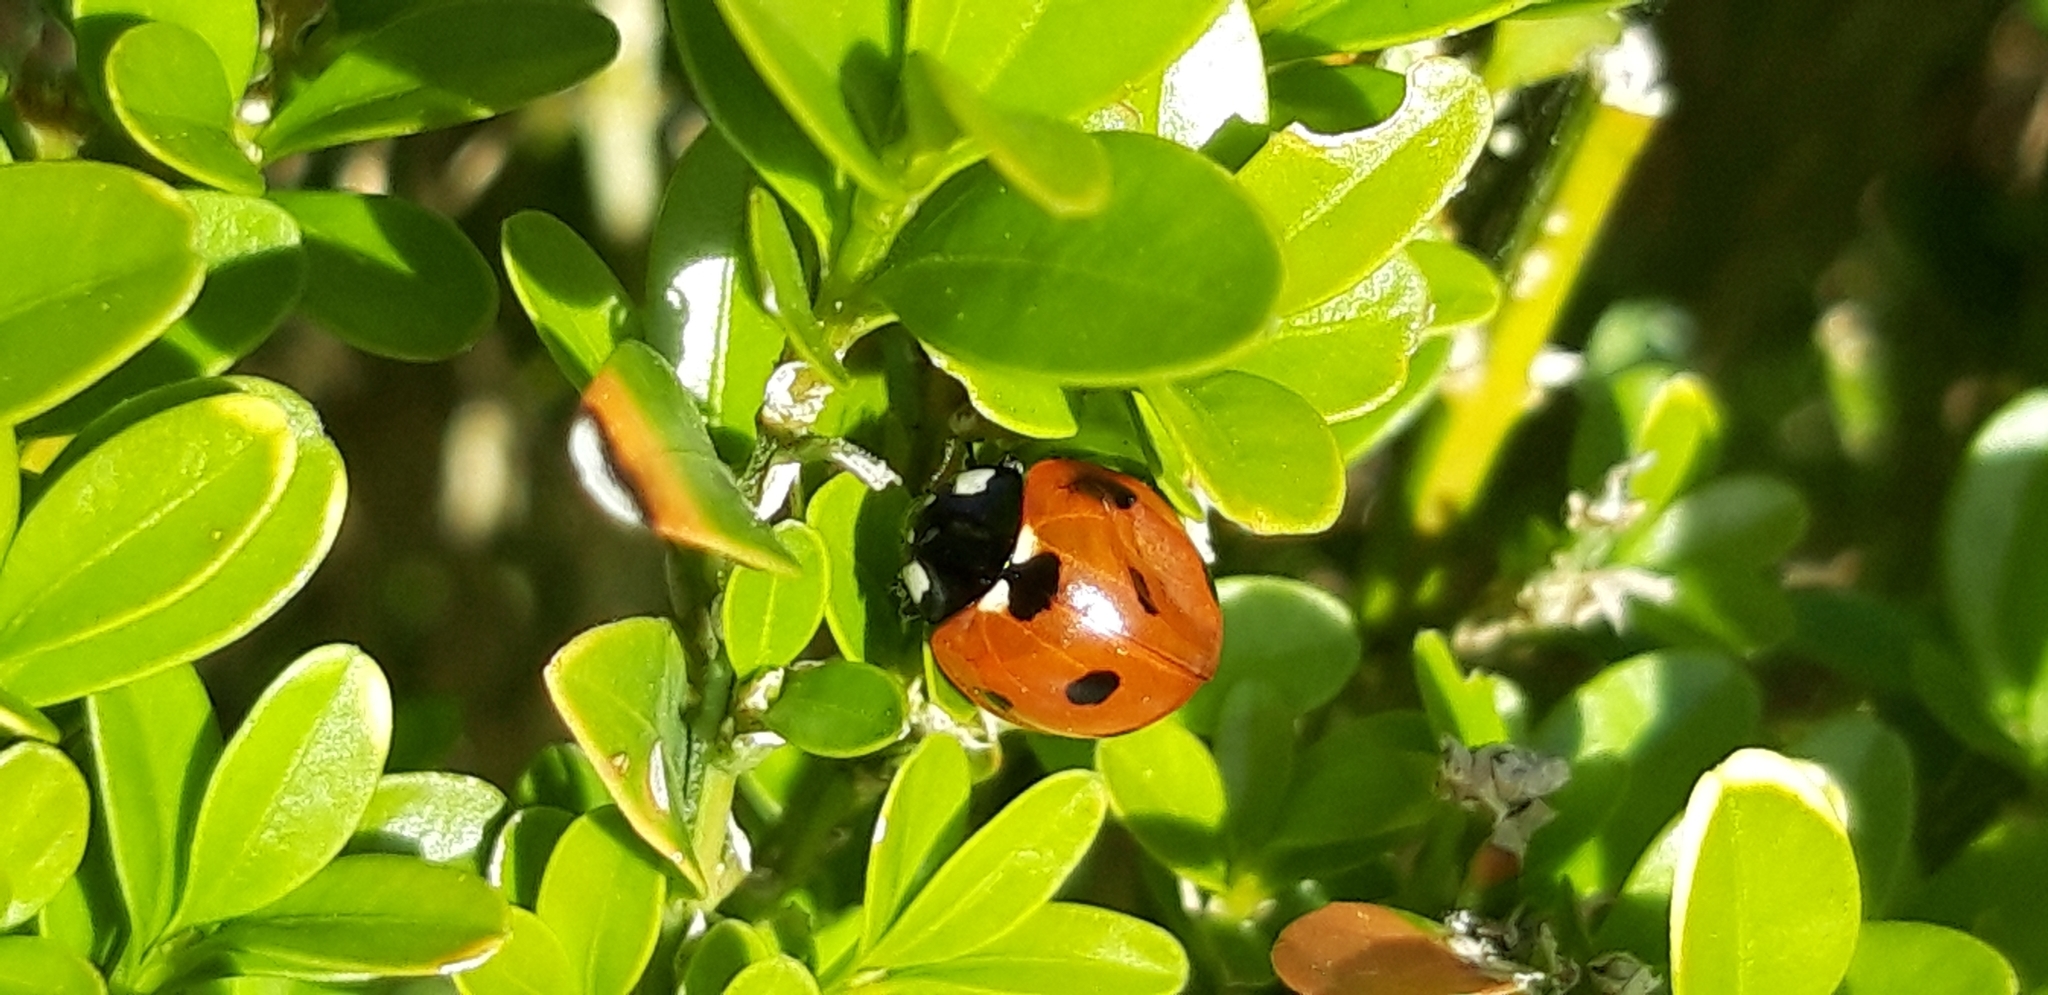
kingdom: Animalia
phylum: Arthropoda
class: Insecta
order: Coleoptera
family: Coccinellidae
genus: Coccinella
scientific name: Coccinella septempunctata
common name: Sevenspotted lady beetle
